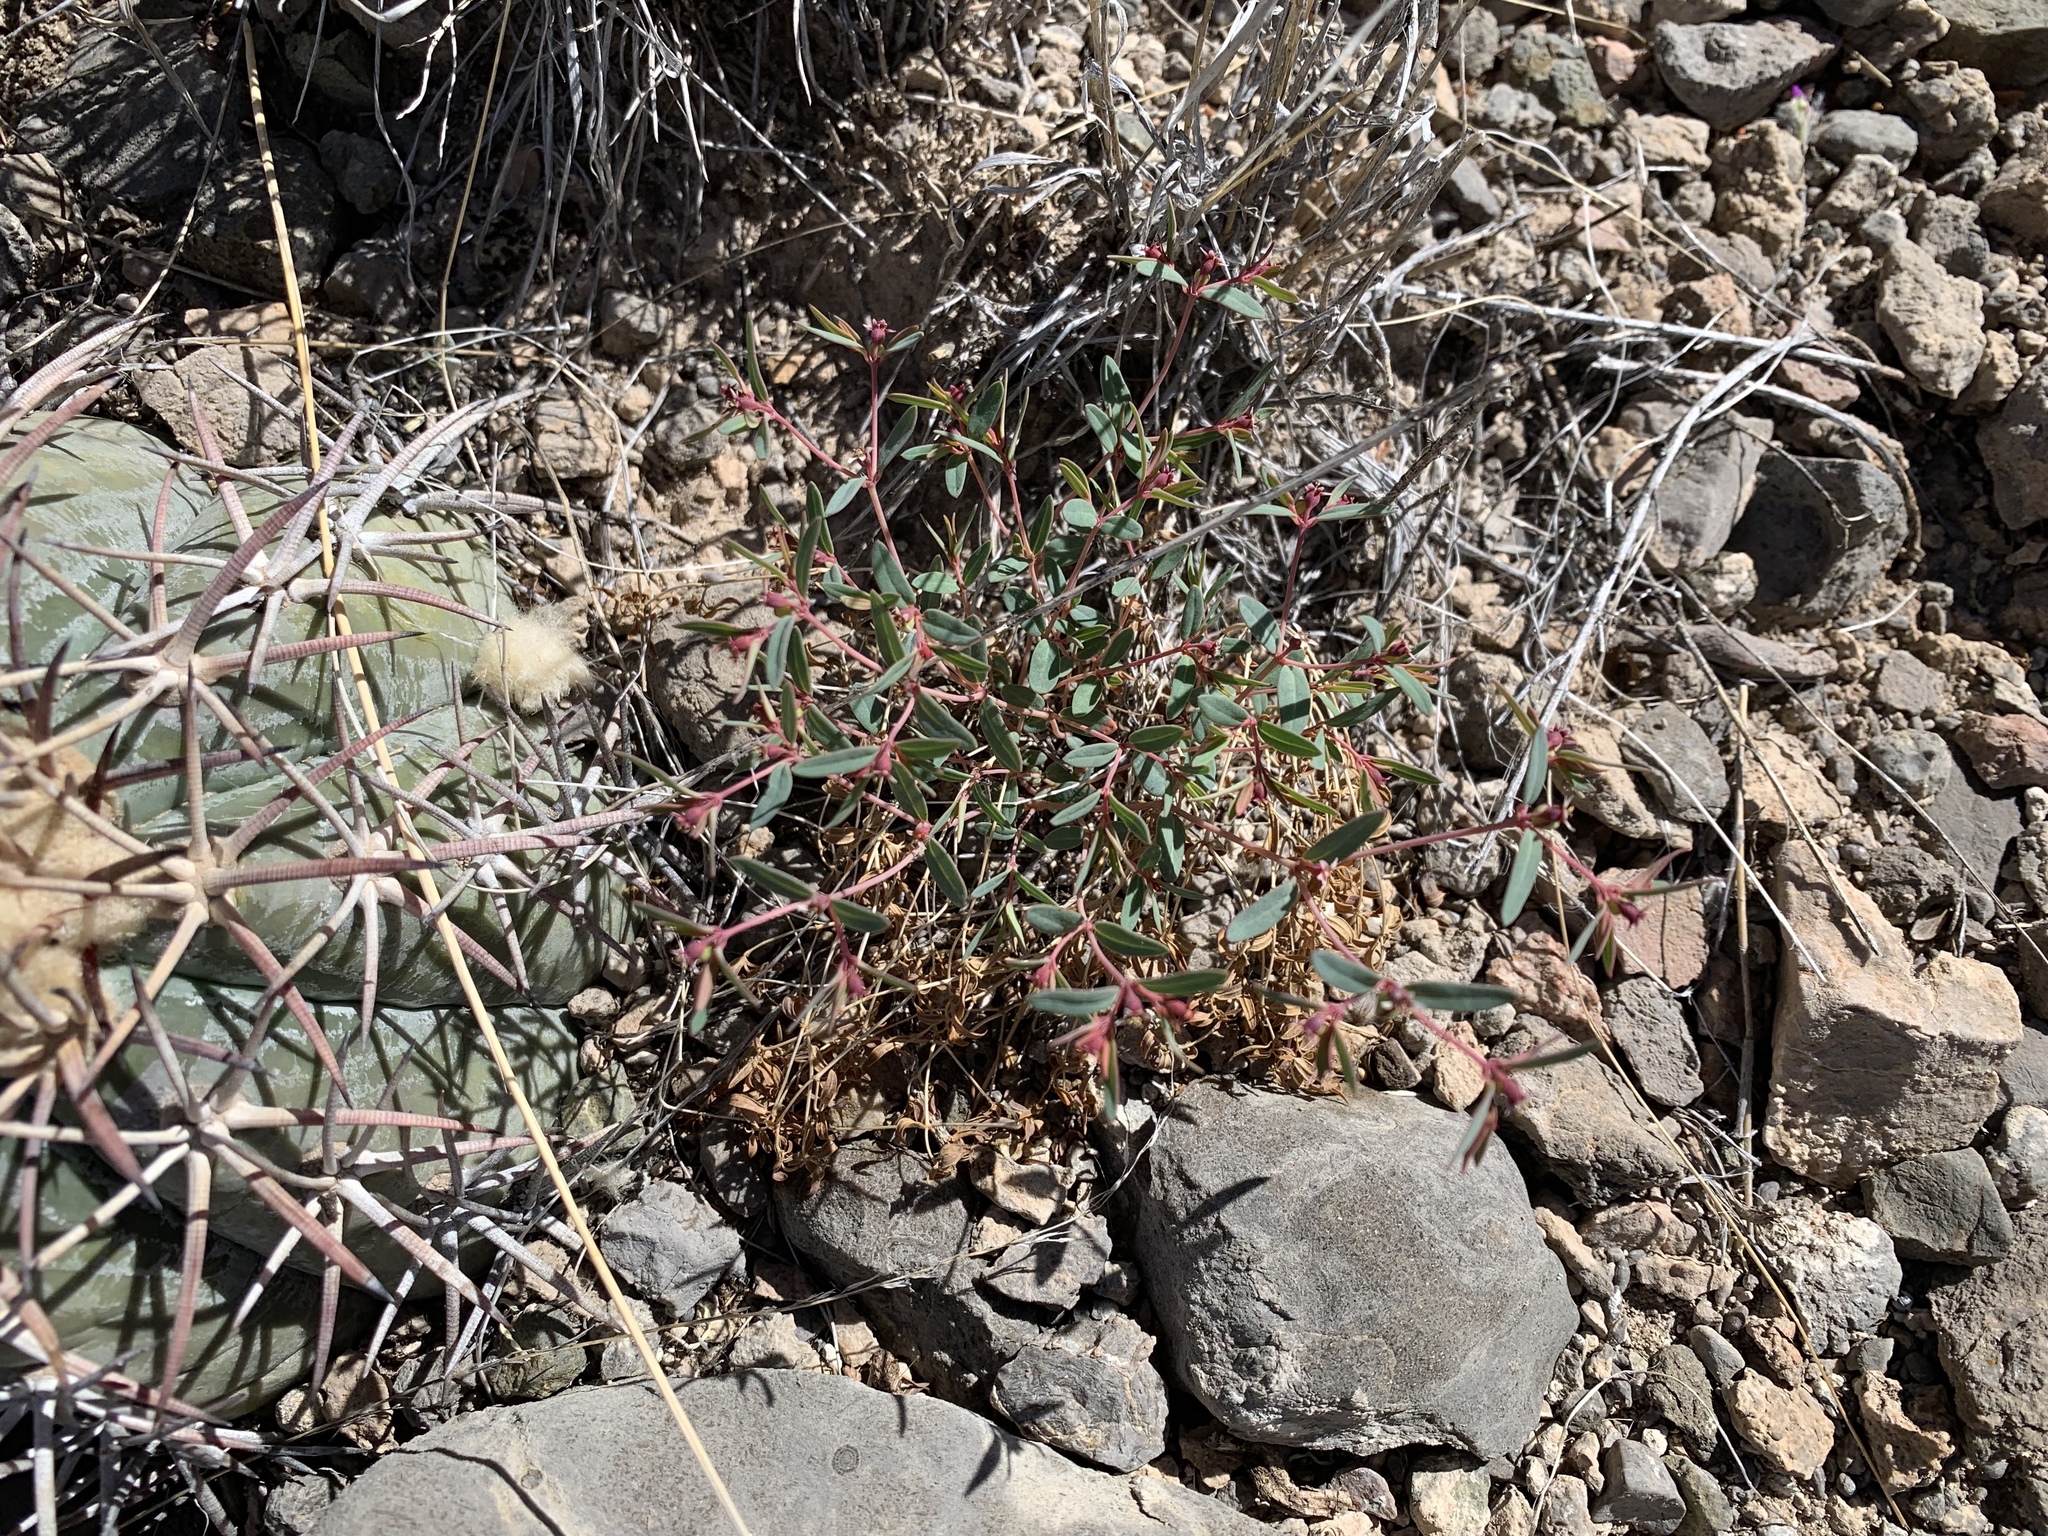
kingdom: Plantae
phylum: Tracheophyta
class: Magnoliopsida
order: Malpighiales
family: Euphorbiaceae
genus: Euphorbia
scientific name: Euphorbia chaetocalyx
